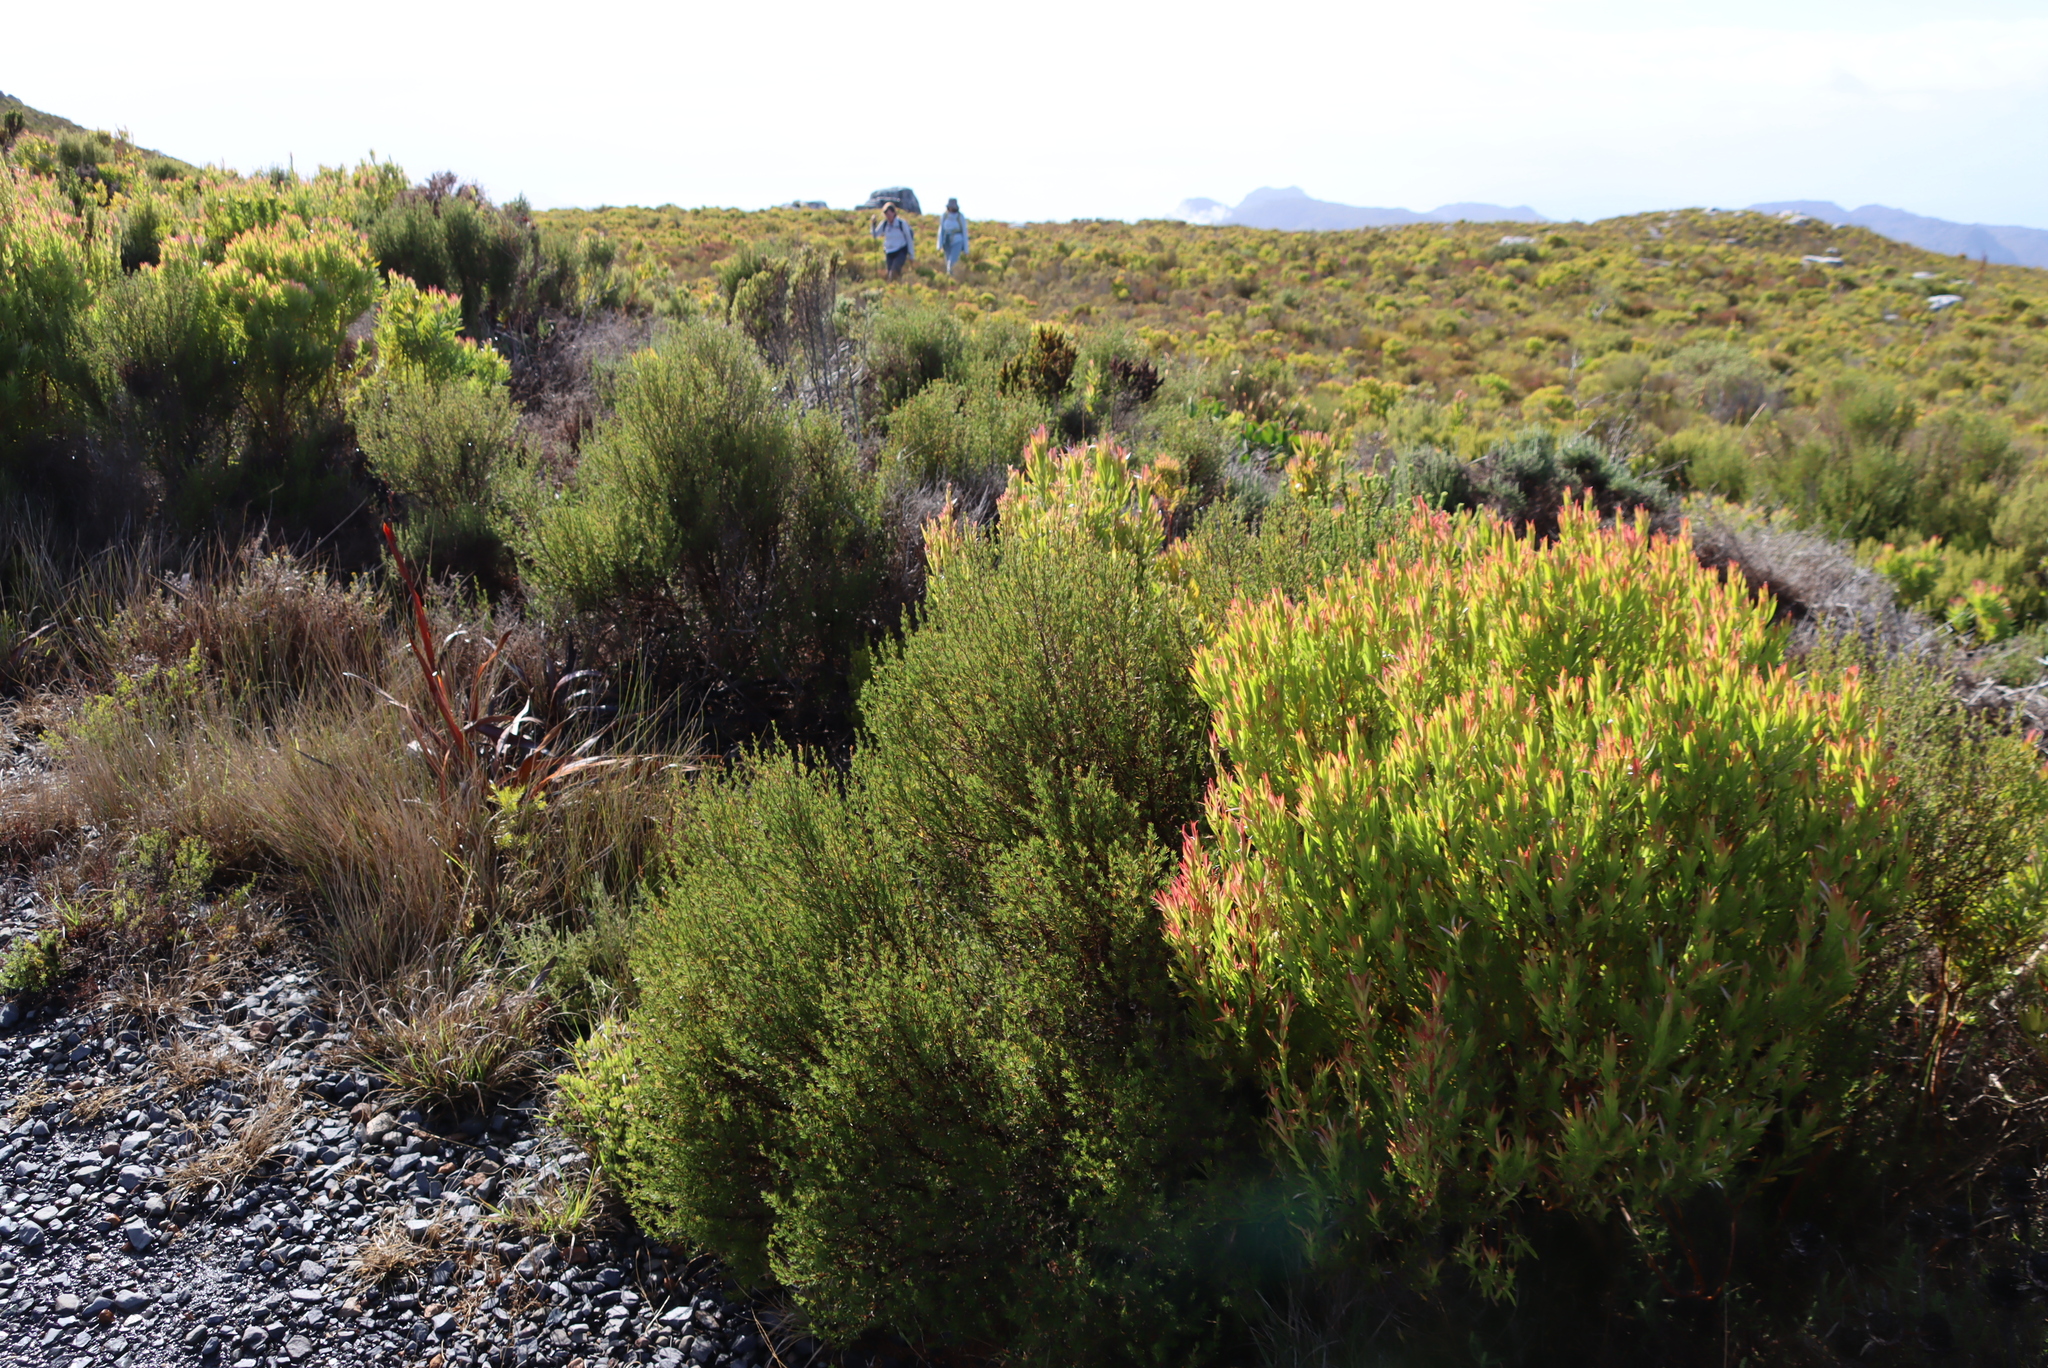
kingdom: Plantae
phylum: Tracheophyta
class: Magnoliopsida
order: Proteales
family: Proteaceae
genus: Leucadendron
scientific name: Leucadendron xanthoconus
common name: Sickle-leaf conebush
